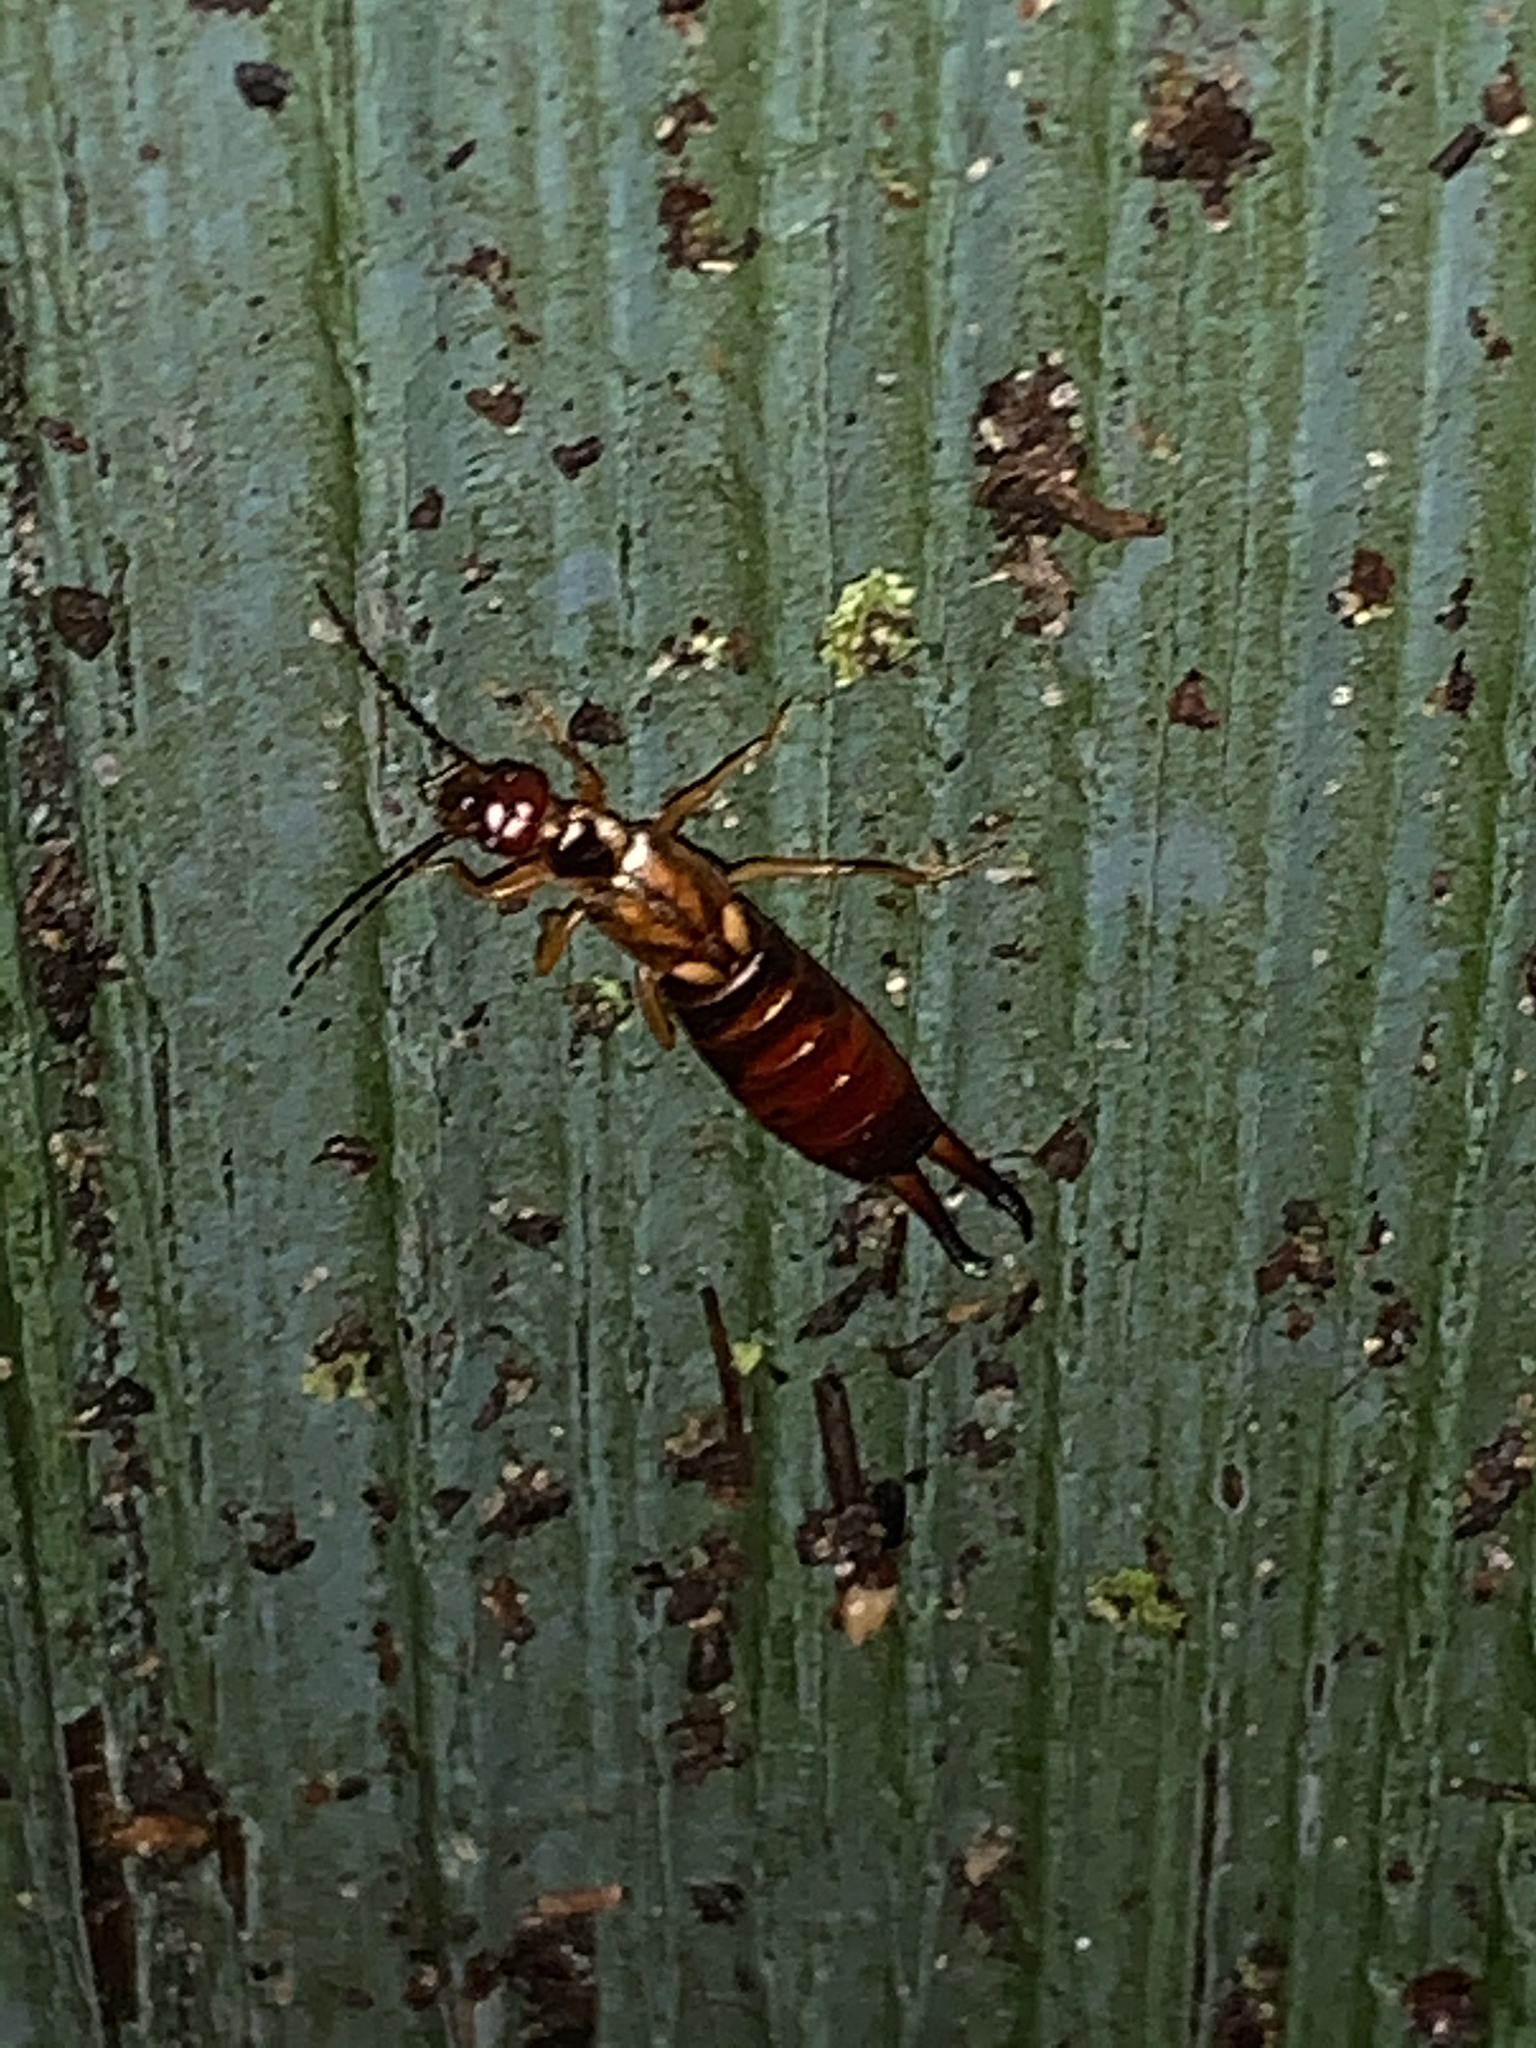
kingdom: Animalia
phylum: Arthropoda
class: Insecta
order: Dermaptera
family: Forficulidae
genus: Forficula
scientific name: Forficula
